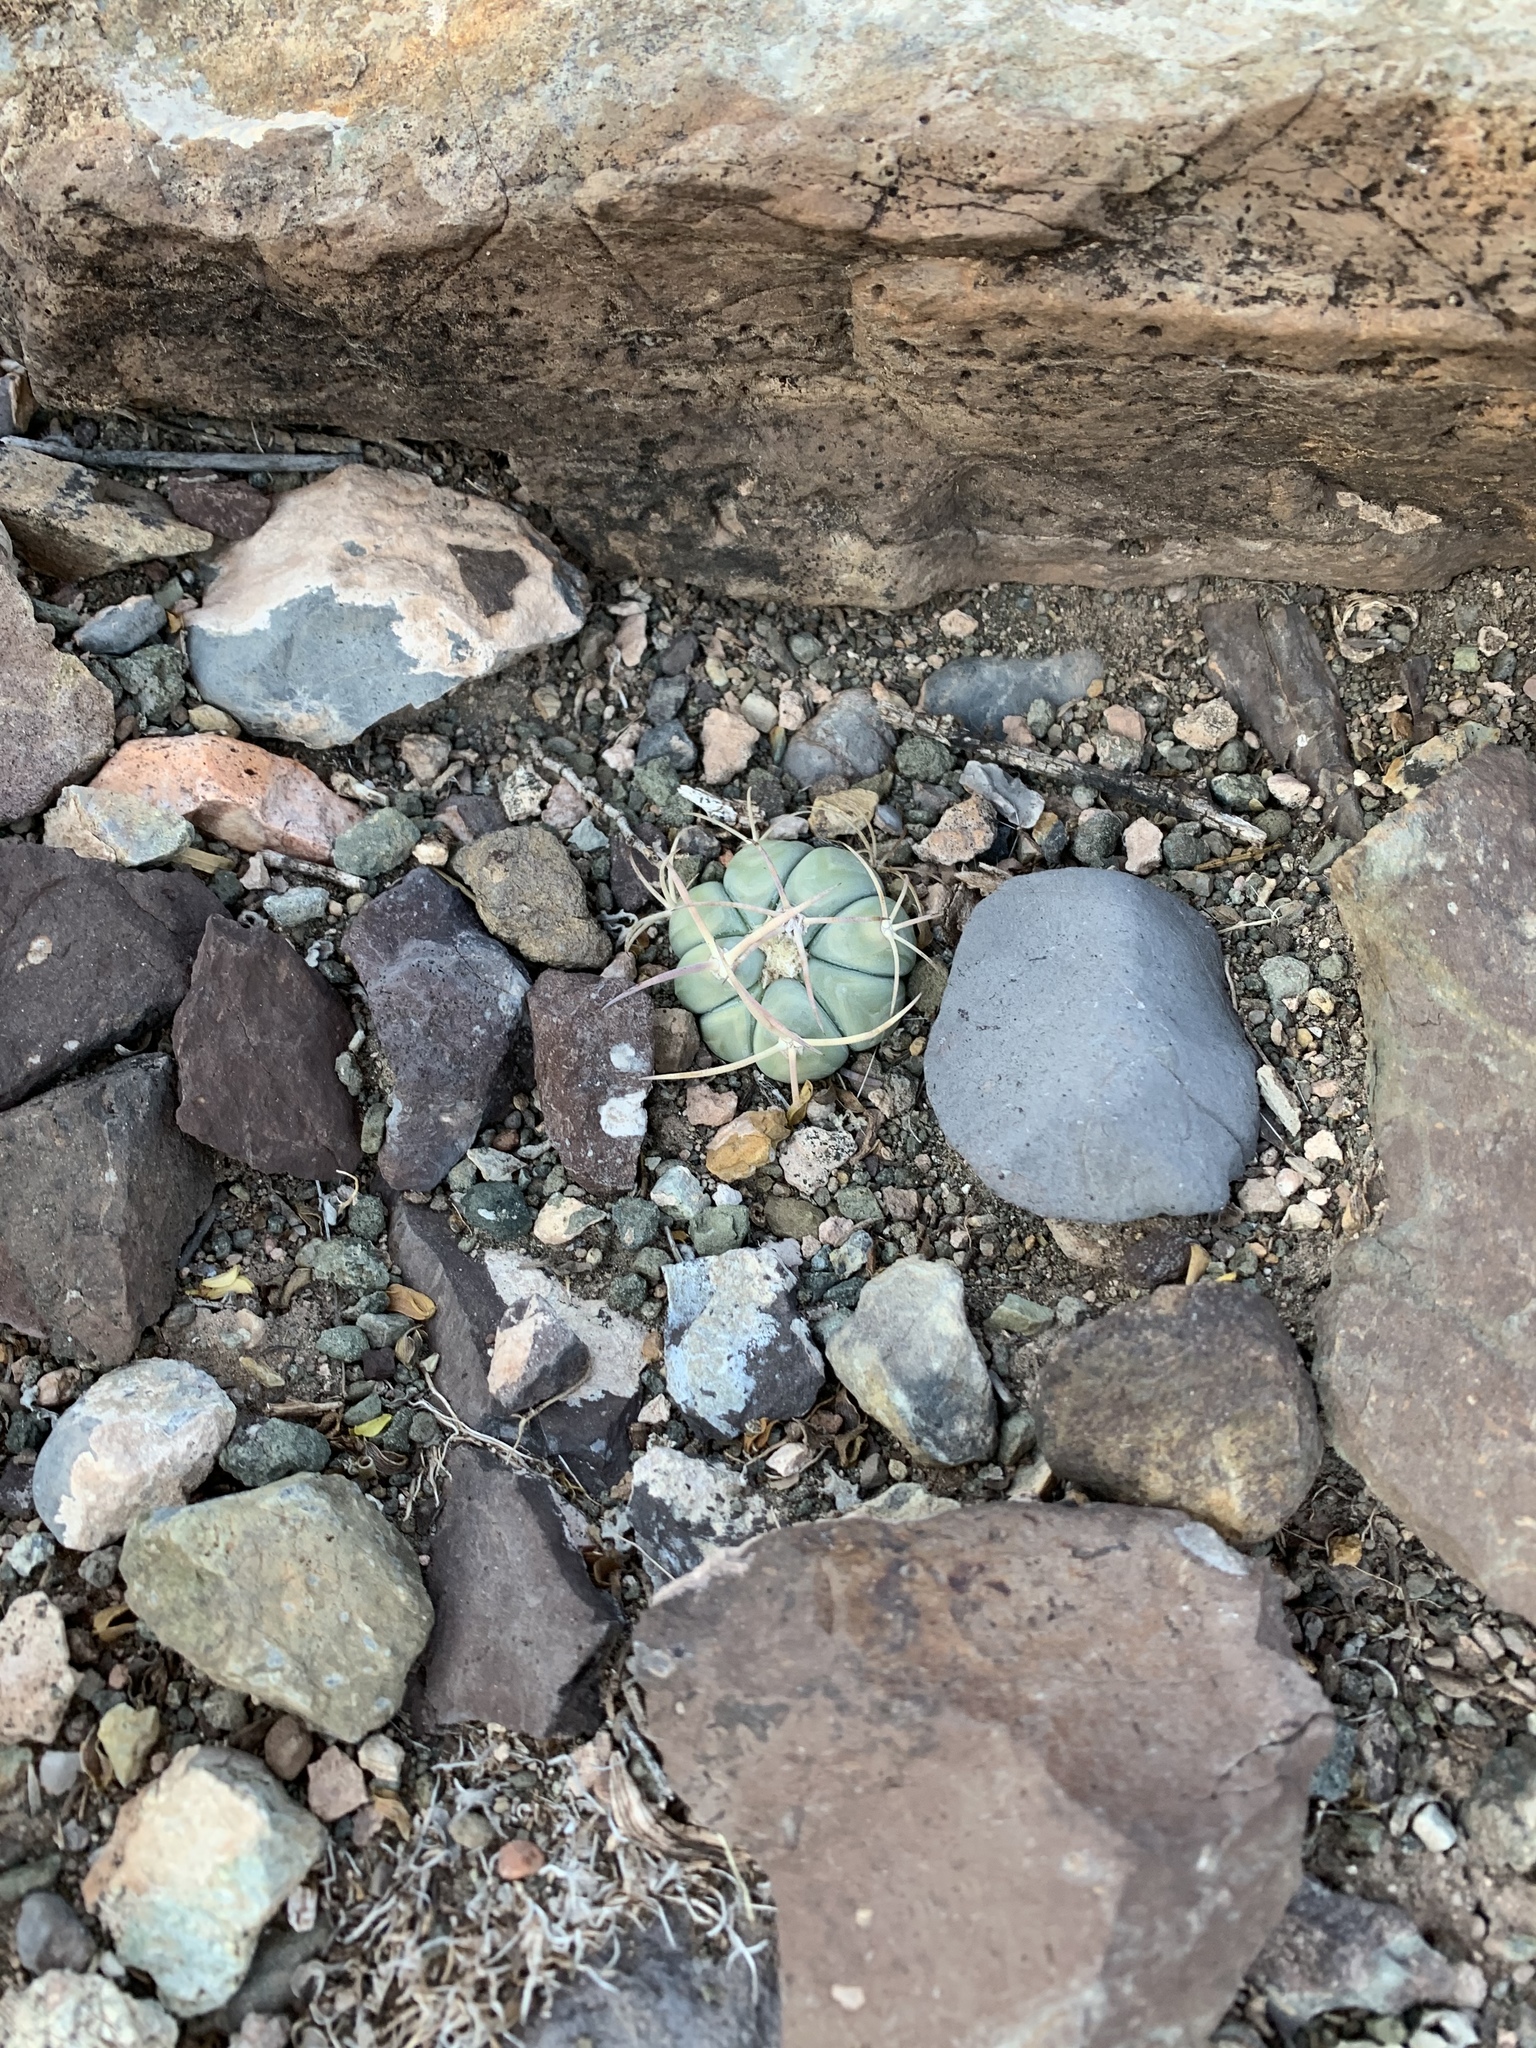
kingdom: Plantae
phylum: Tracheophyta
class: Magnoliopsida
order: Caryophyllales
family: Cactaceae
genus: Echinocactus
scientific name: Echinocactus horizonthalonius
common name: Devilshead
